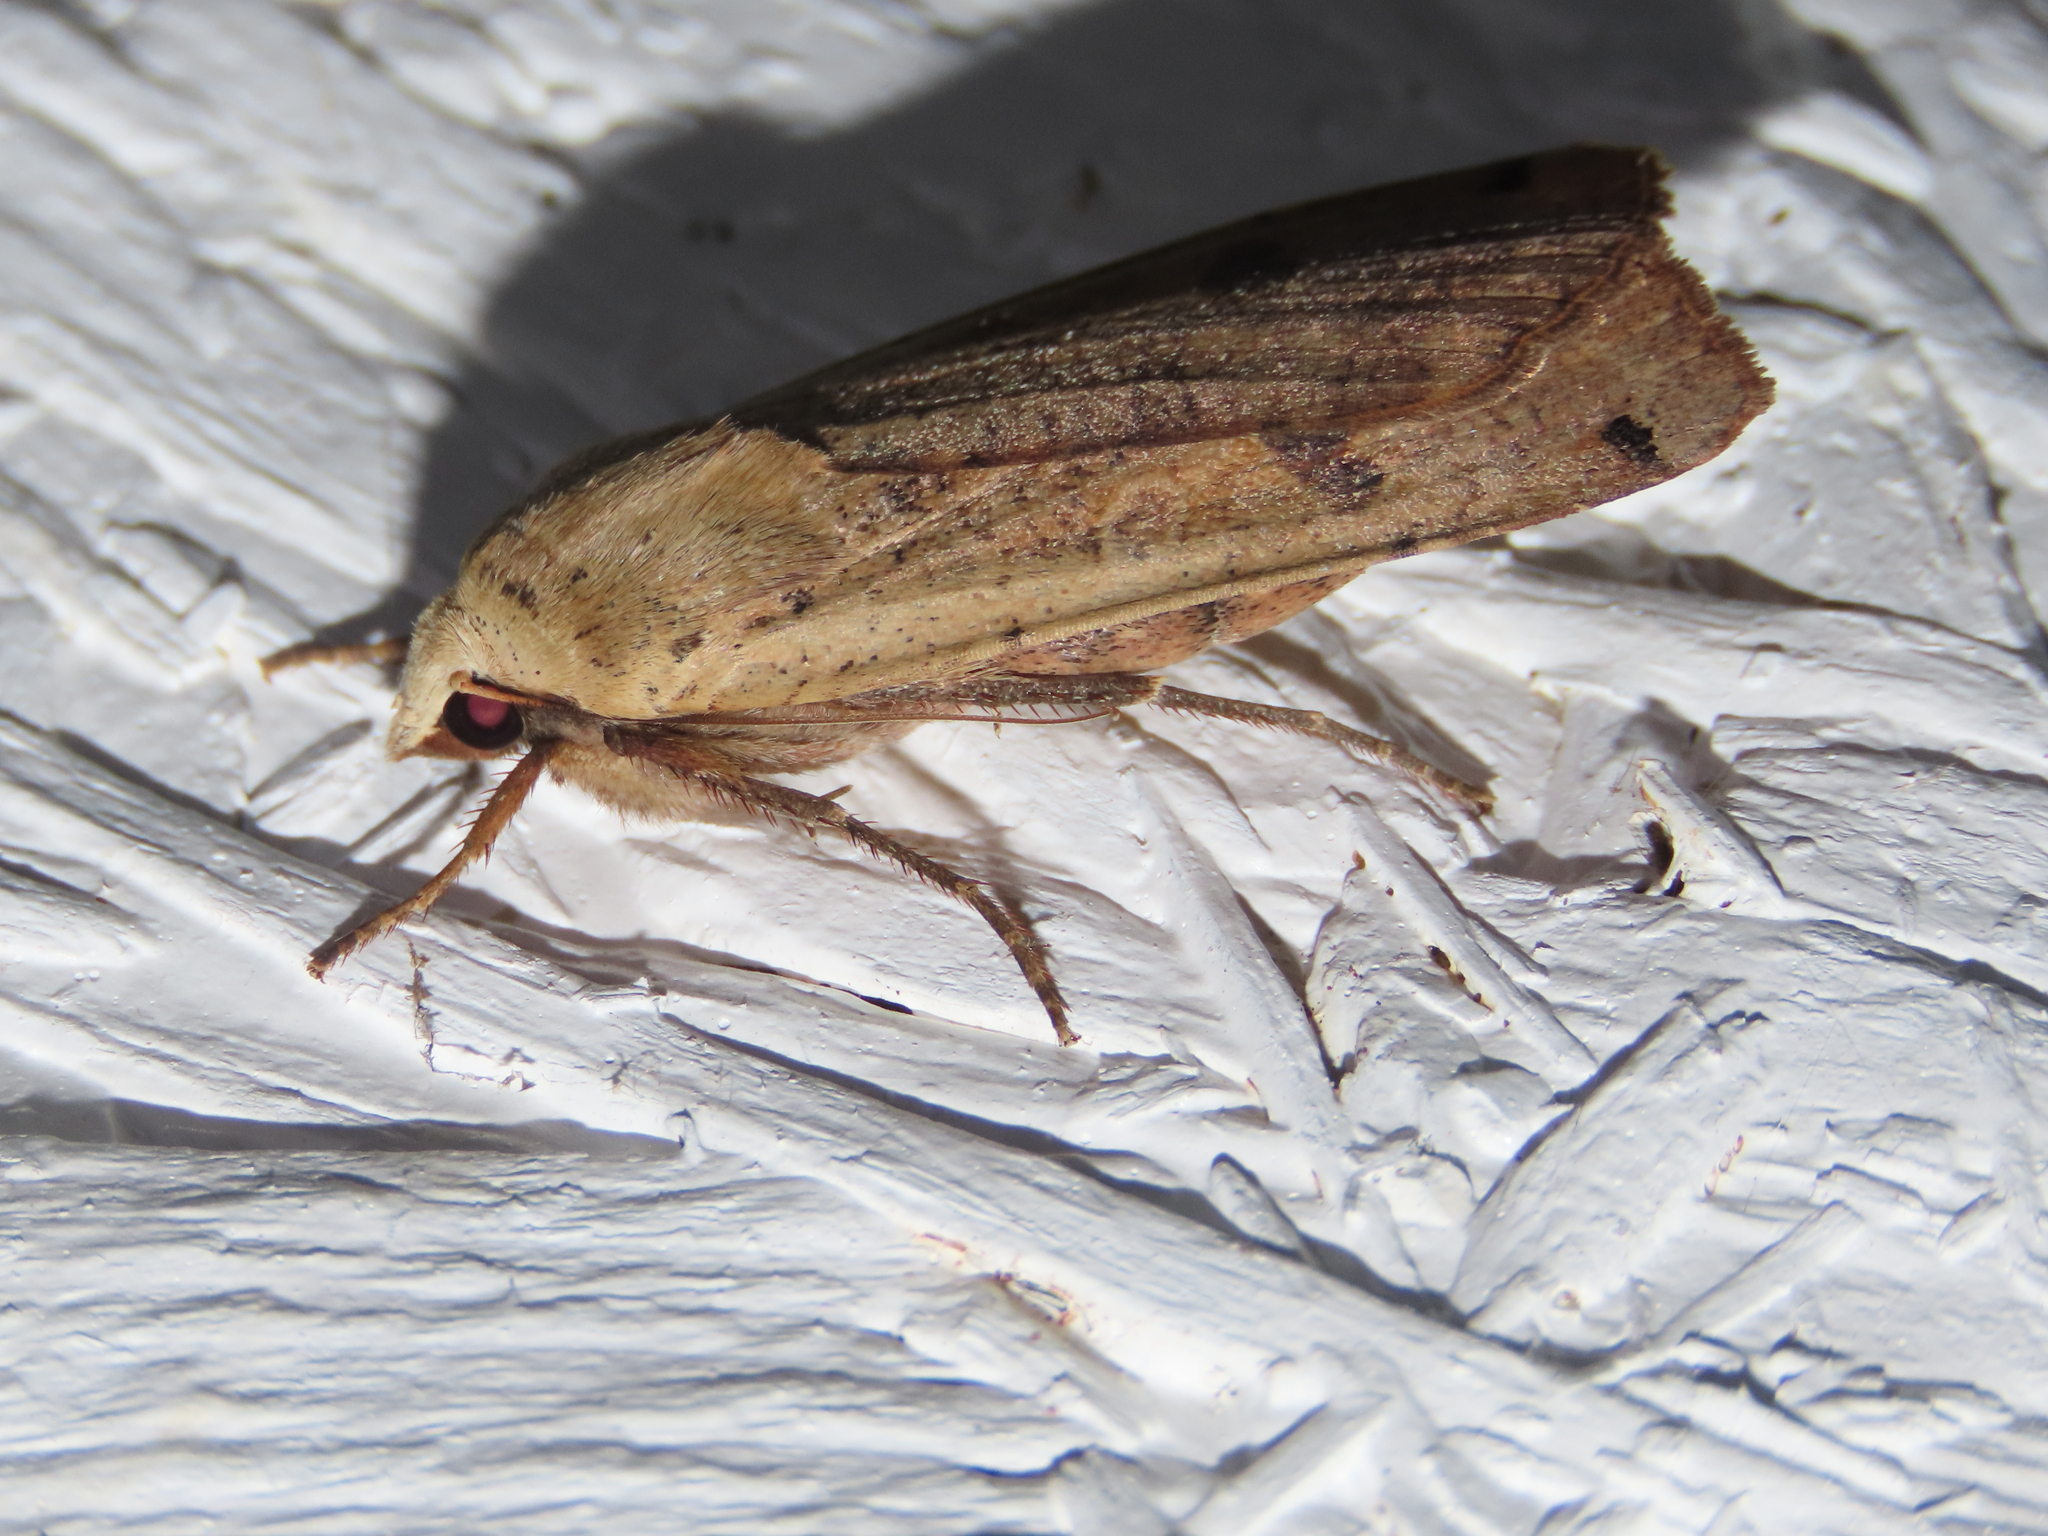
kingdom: Animalia
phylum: Arthropoda
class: Insecta
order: Lepidoptera
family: Noctuidae
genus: Noctua
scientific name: Noctua pronuba
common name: Large yellow underwing
